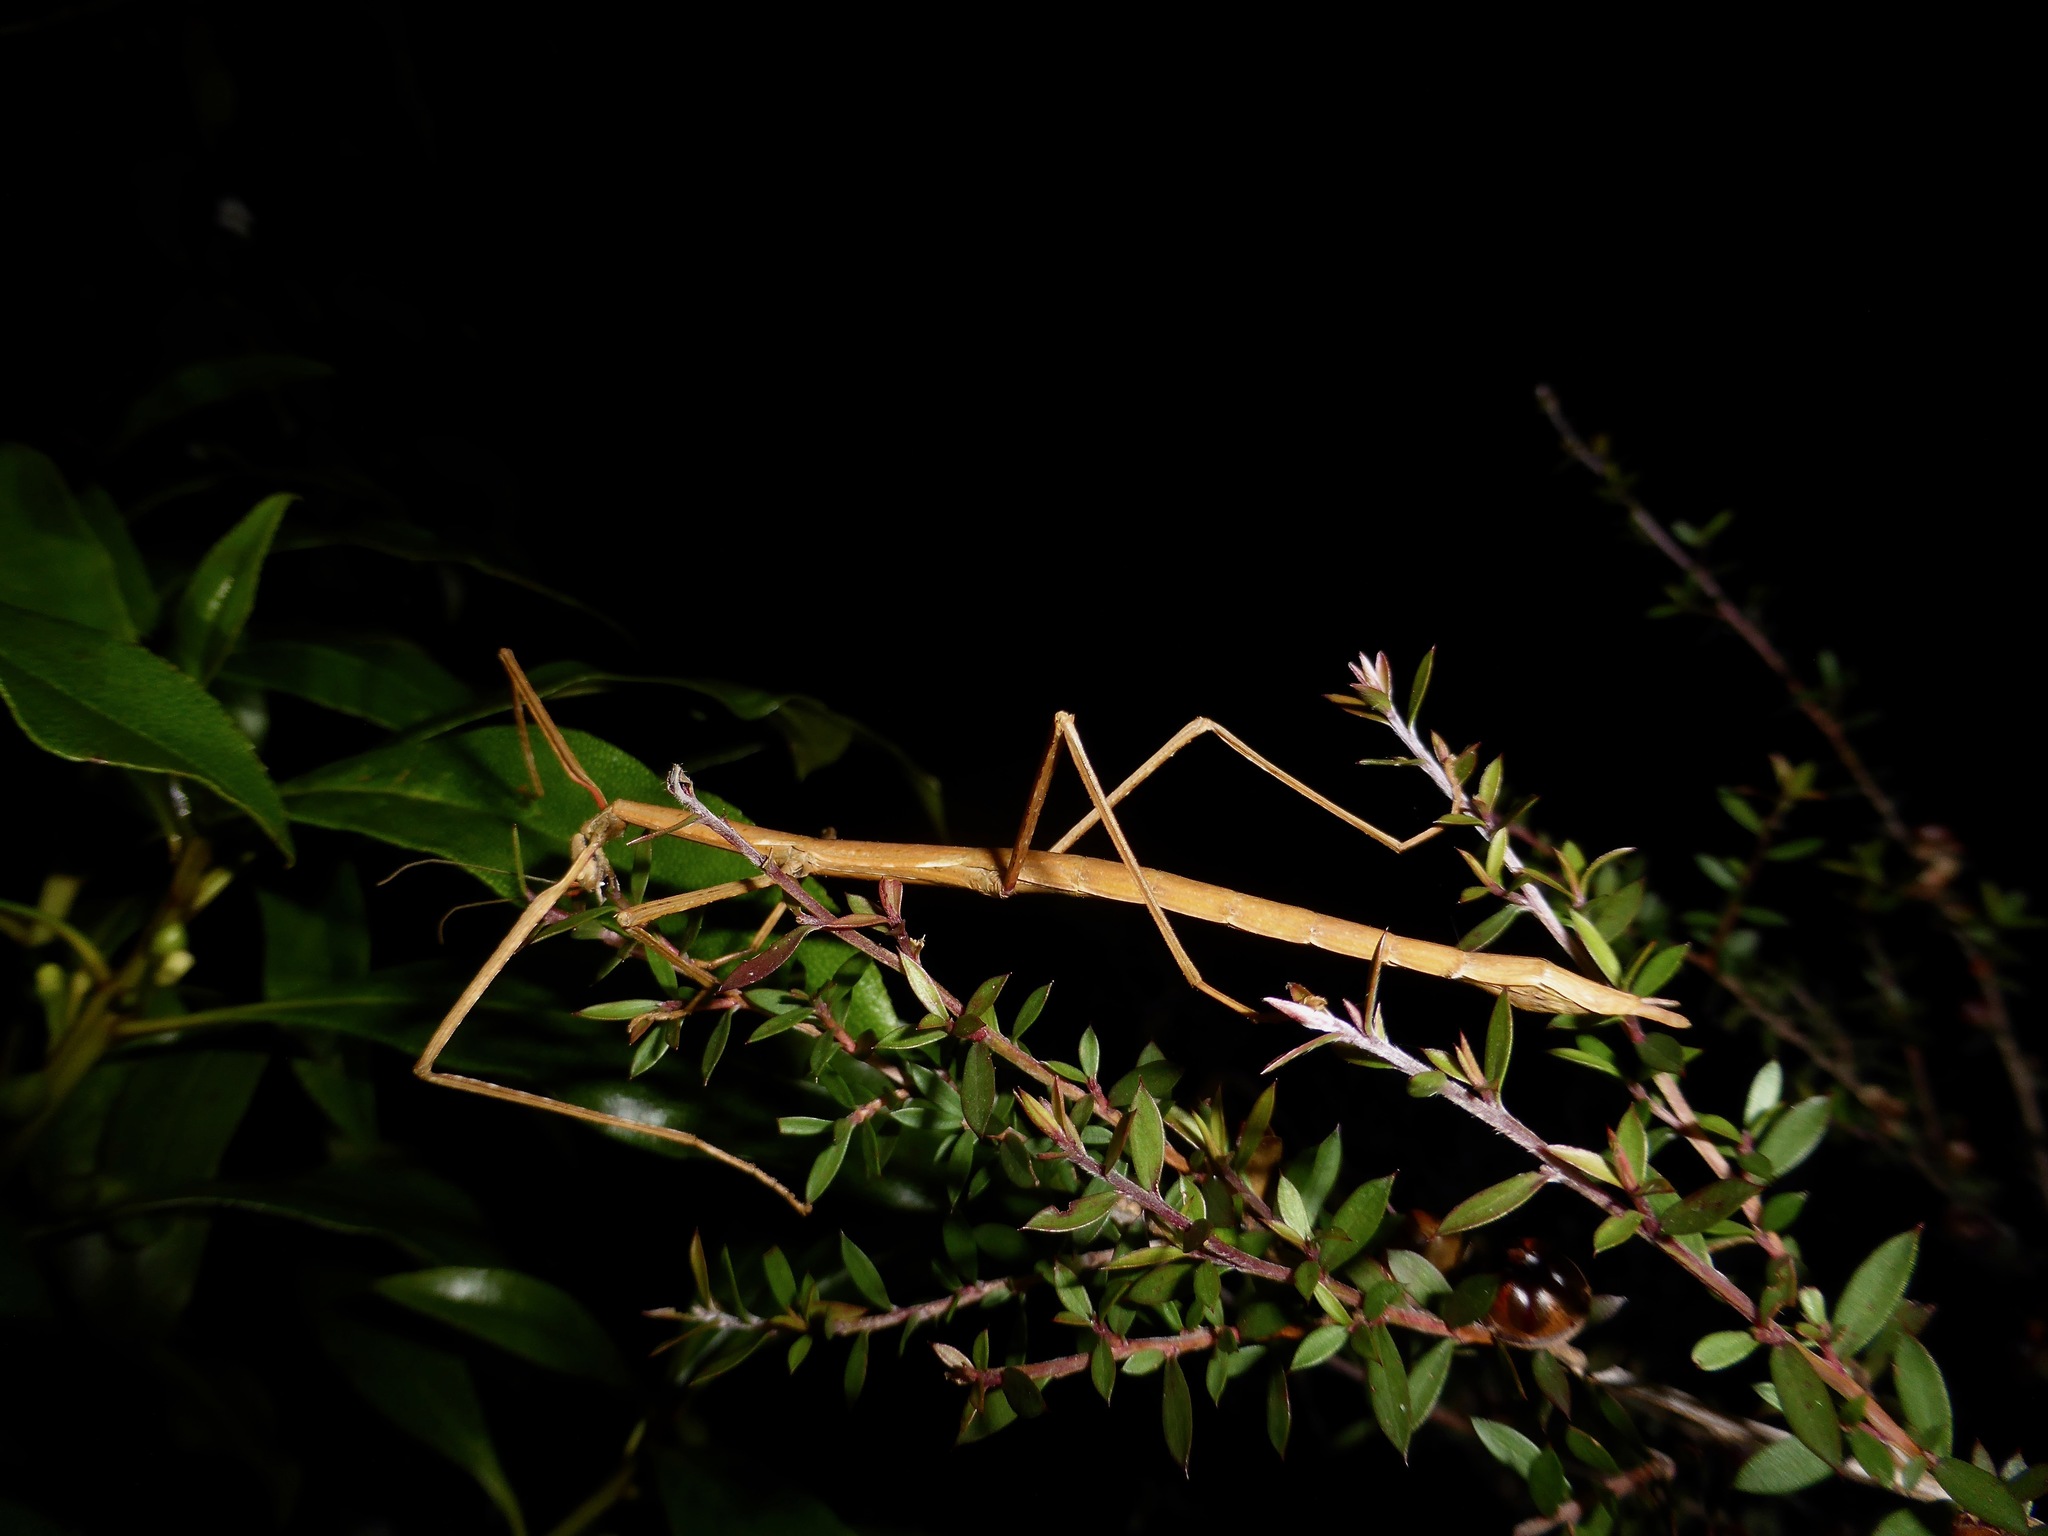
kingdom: Animalia
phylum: Arthropoda
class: Insecta
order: Phasmida
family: Phasmatidae
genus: Clitarchus
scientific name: Clitarchus hookeri
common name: Smooth stick insect
